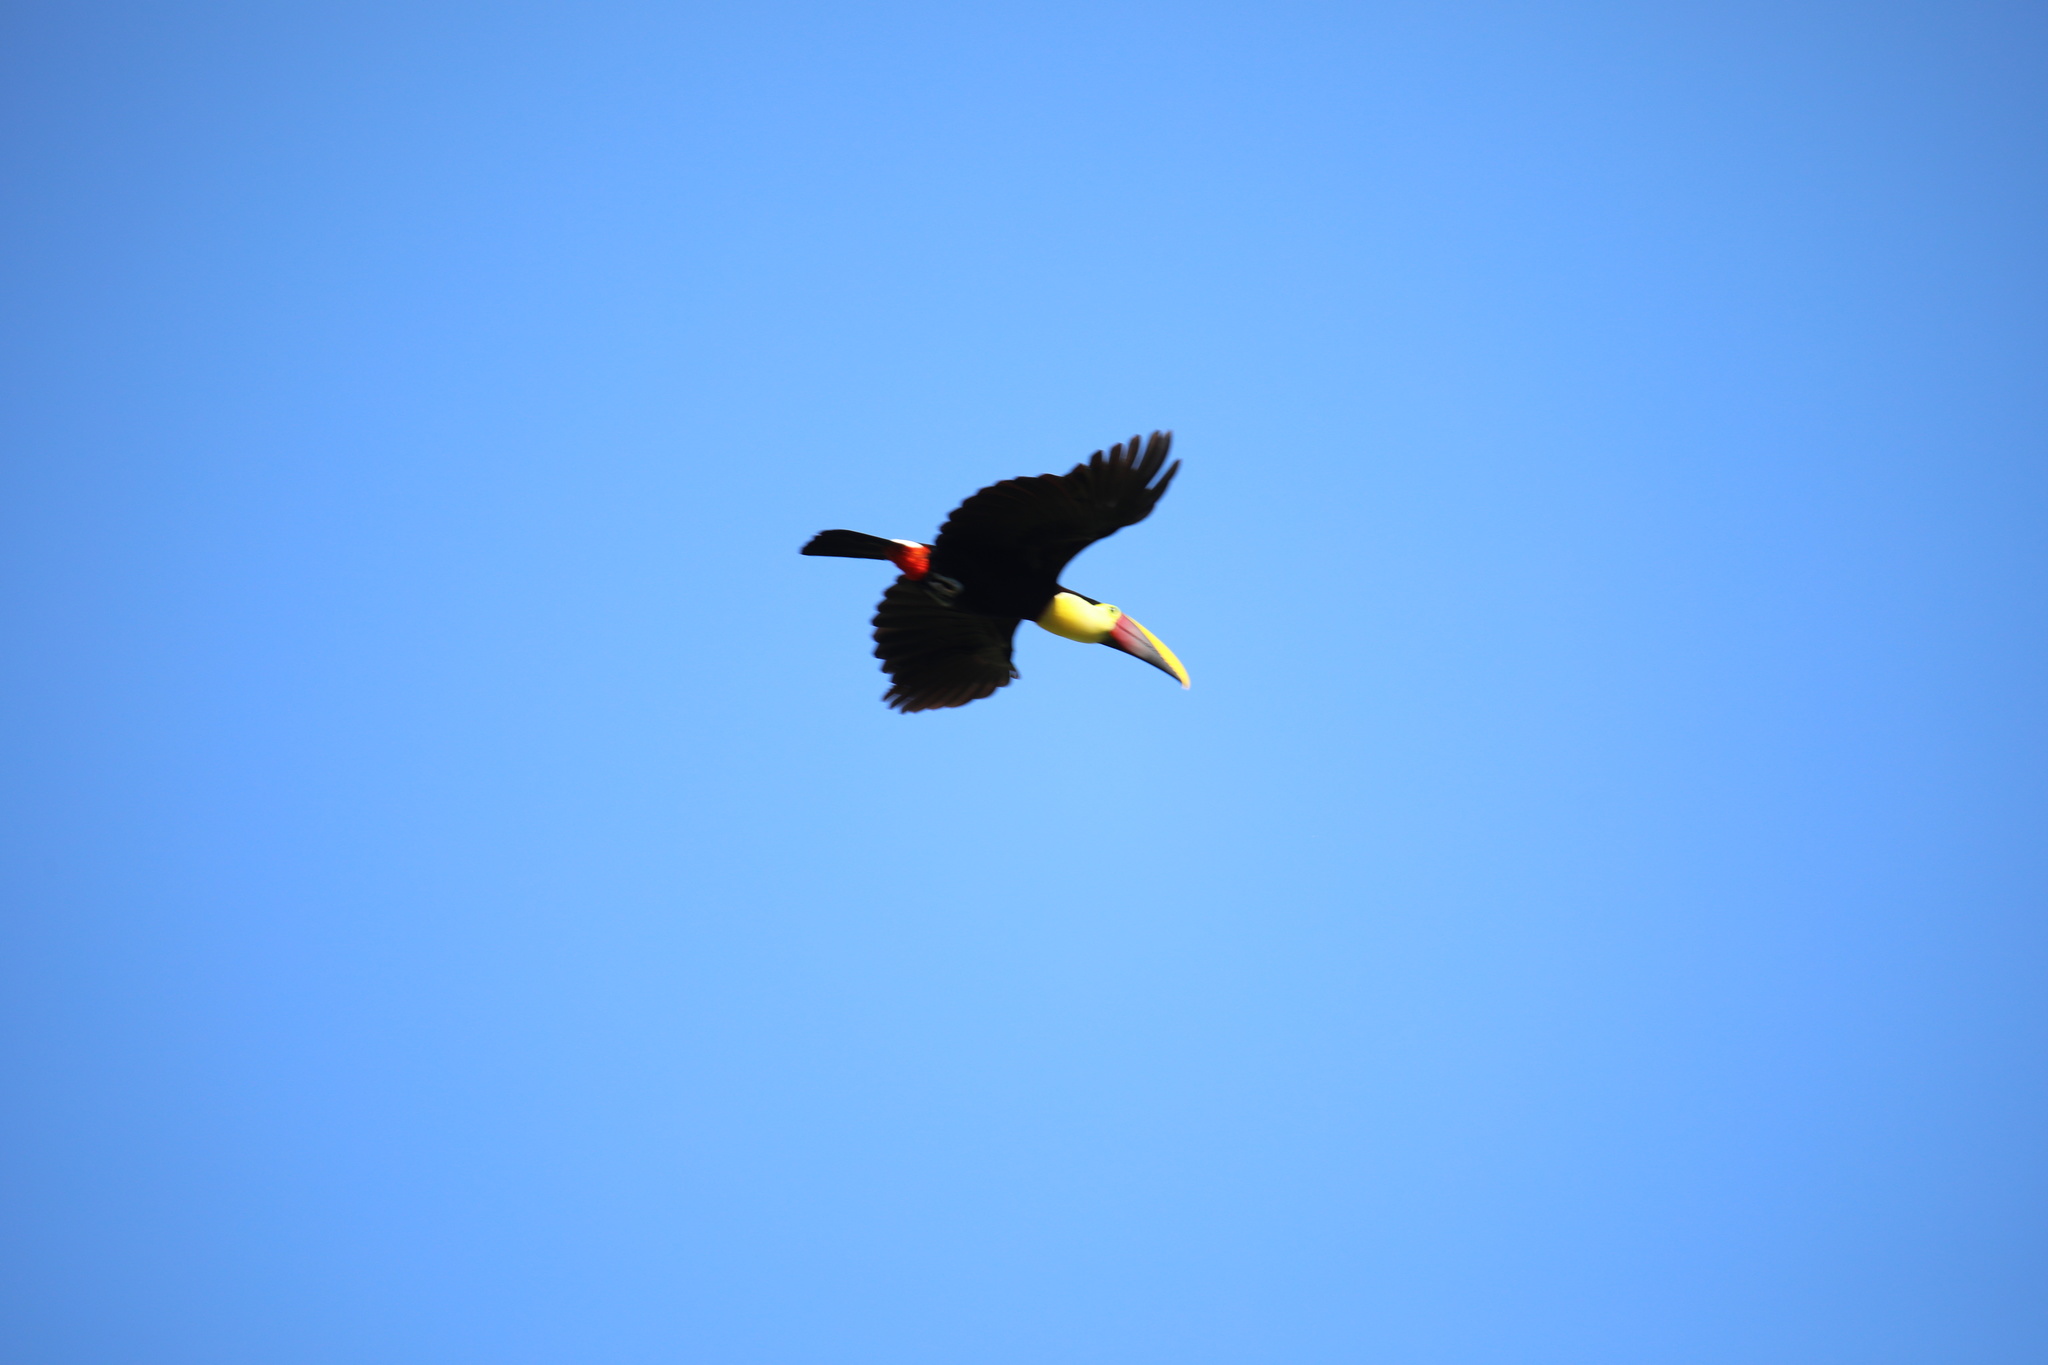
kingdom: Animalia
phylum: Chordata
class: Aves
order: Piciformes
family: Ramphastidae
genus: Ramphastos
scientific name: Ramphastos ambiguus
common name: Yellow-throated toucan
